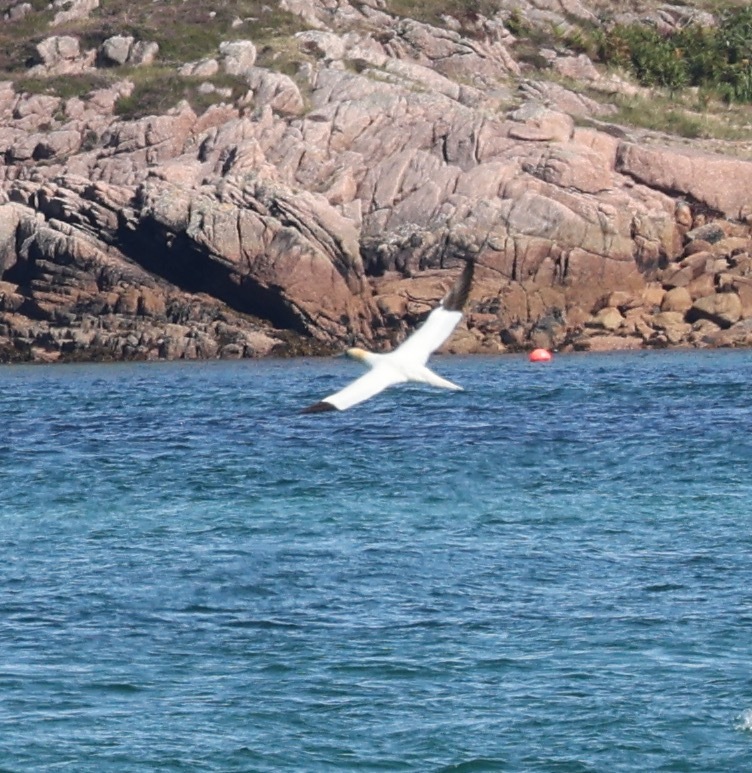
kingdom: Animalia
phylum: Chordata
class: Aves
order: Suliformes
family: Sulidae
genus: Morus
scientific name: Morus bassanus
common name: Northern gannet
